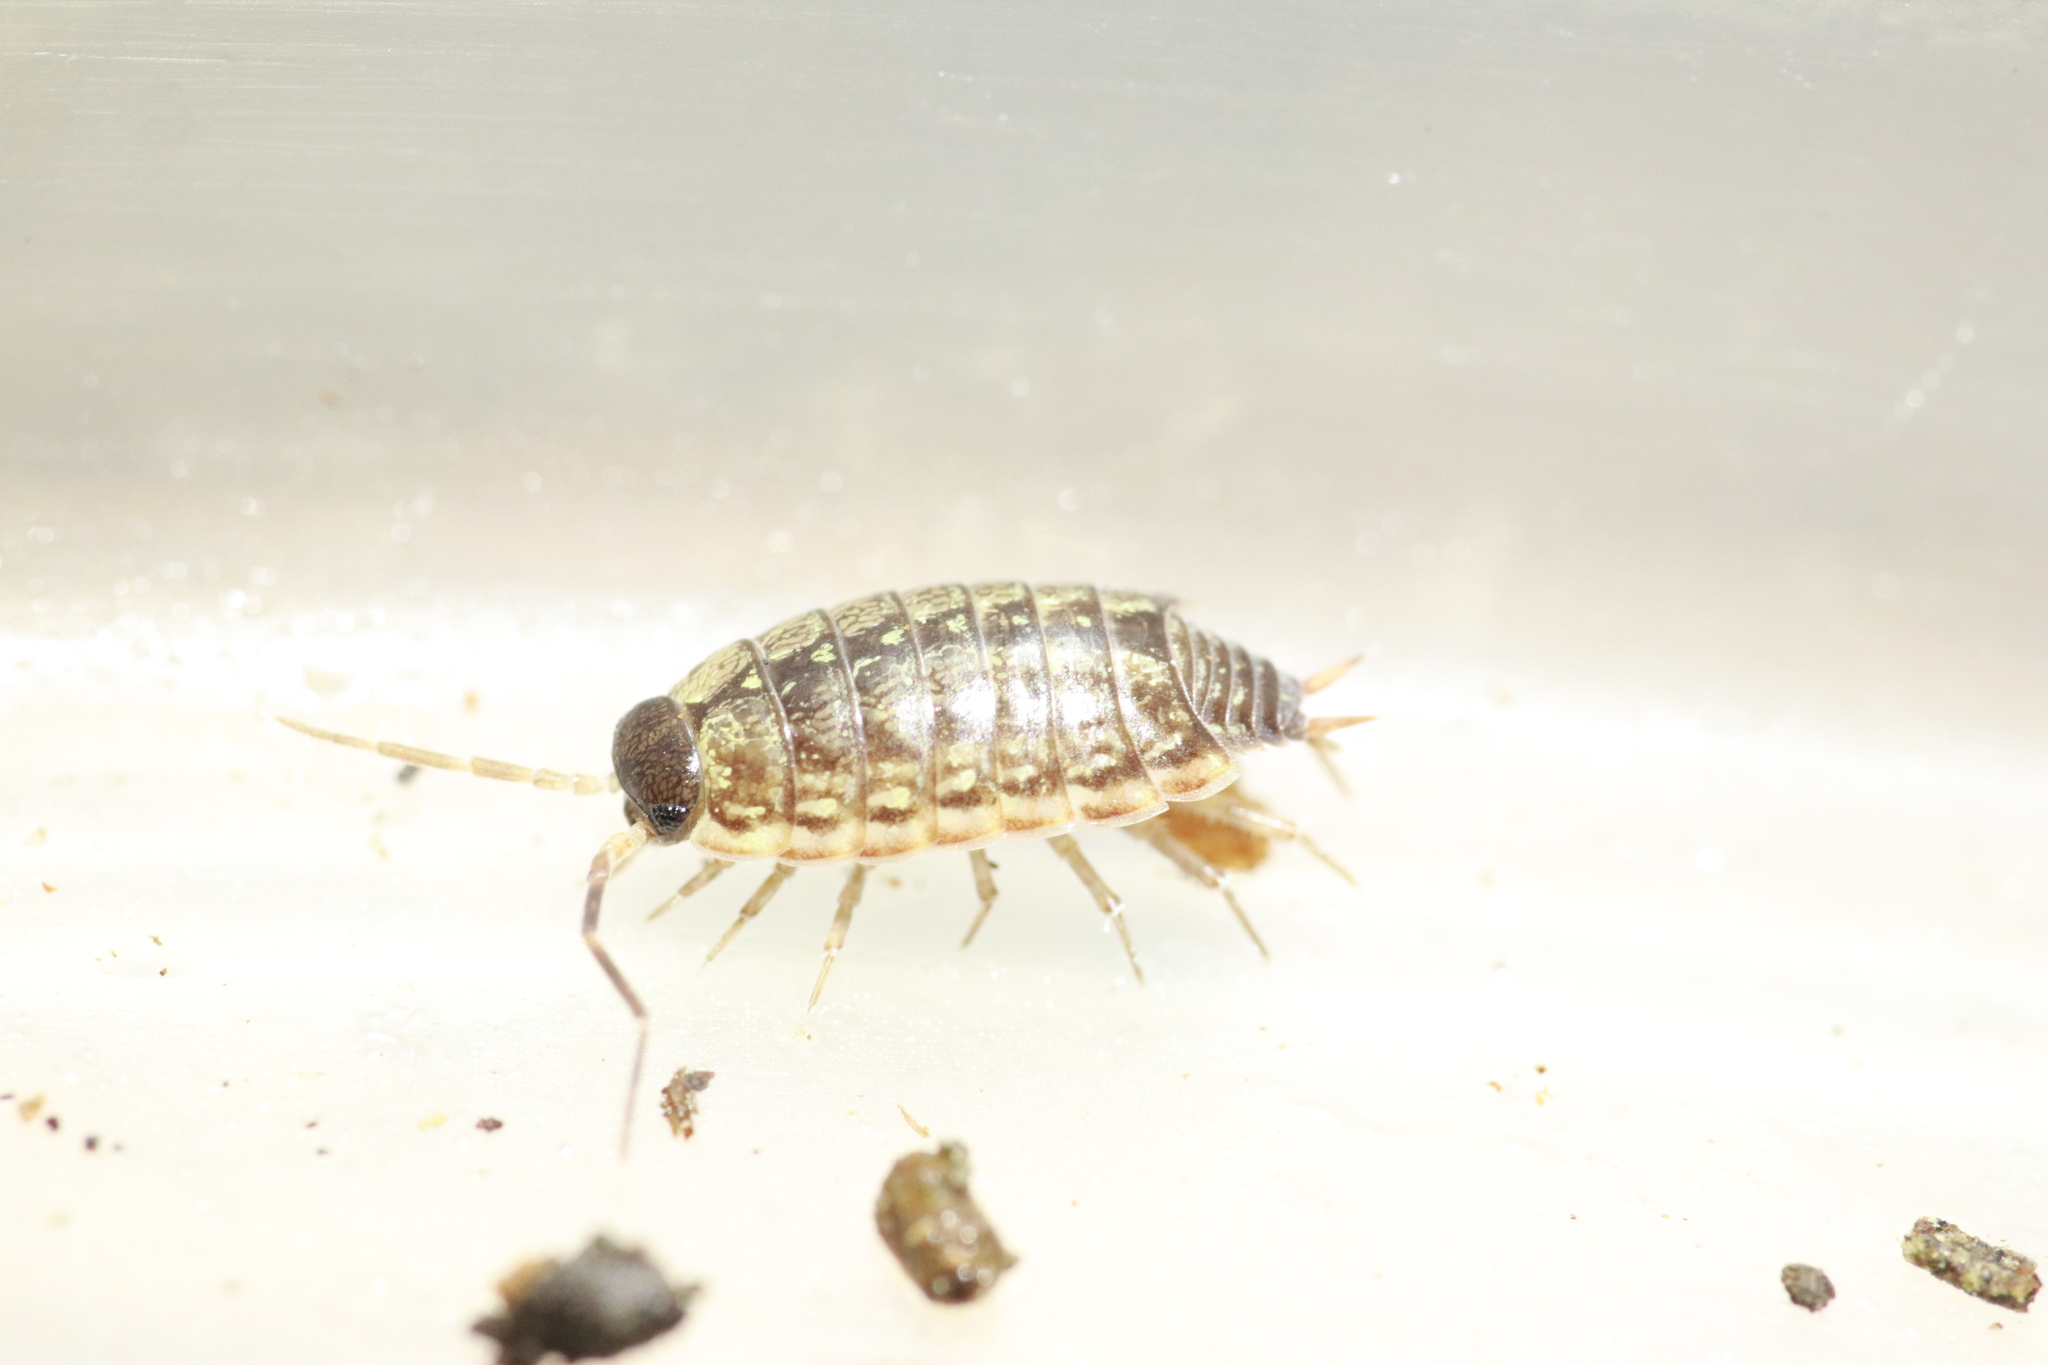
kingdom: Animalia
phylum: Arthropoda
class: Malacostraca
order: Isopoda
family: Philosciidae
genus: Philoscia
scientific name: Philoscia muscorum
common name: Common striped woodlouse
